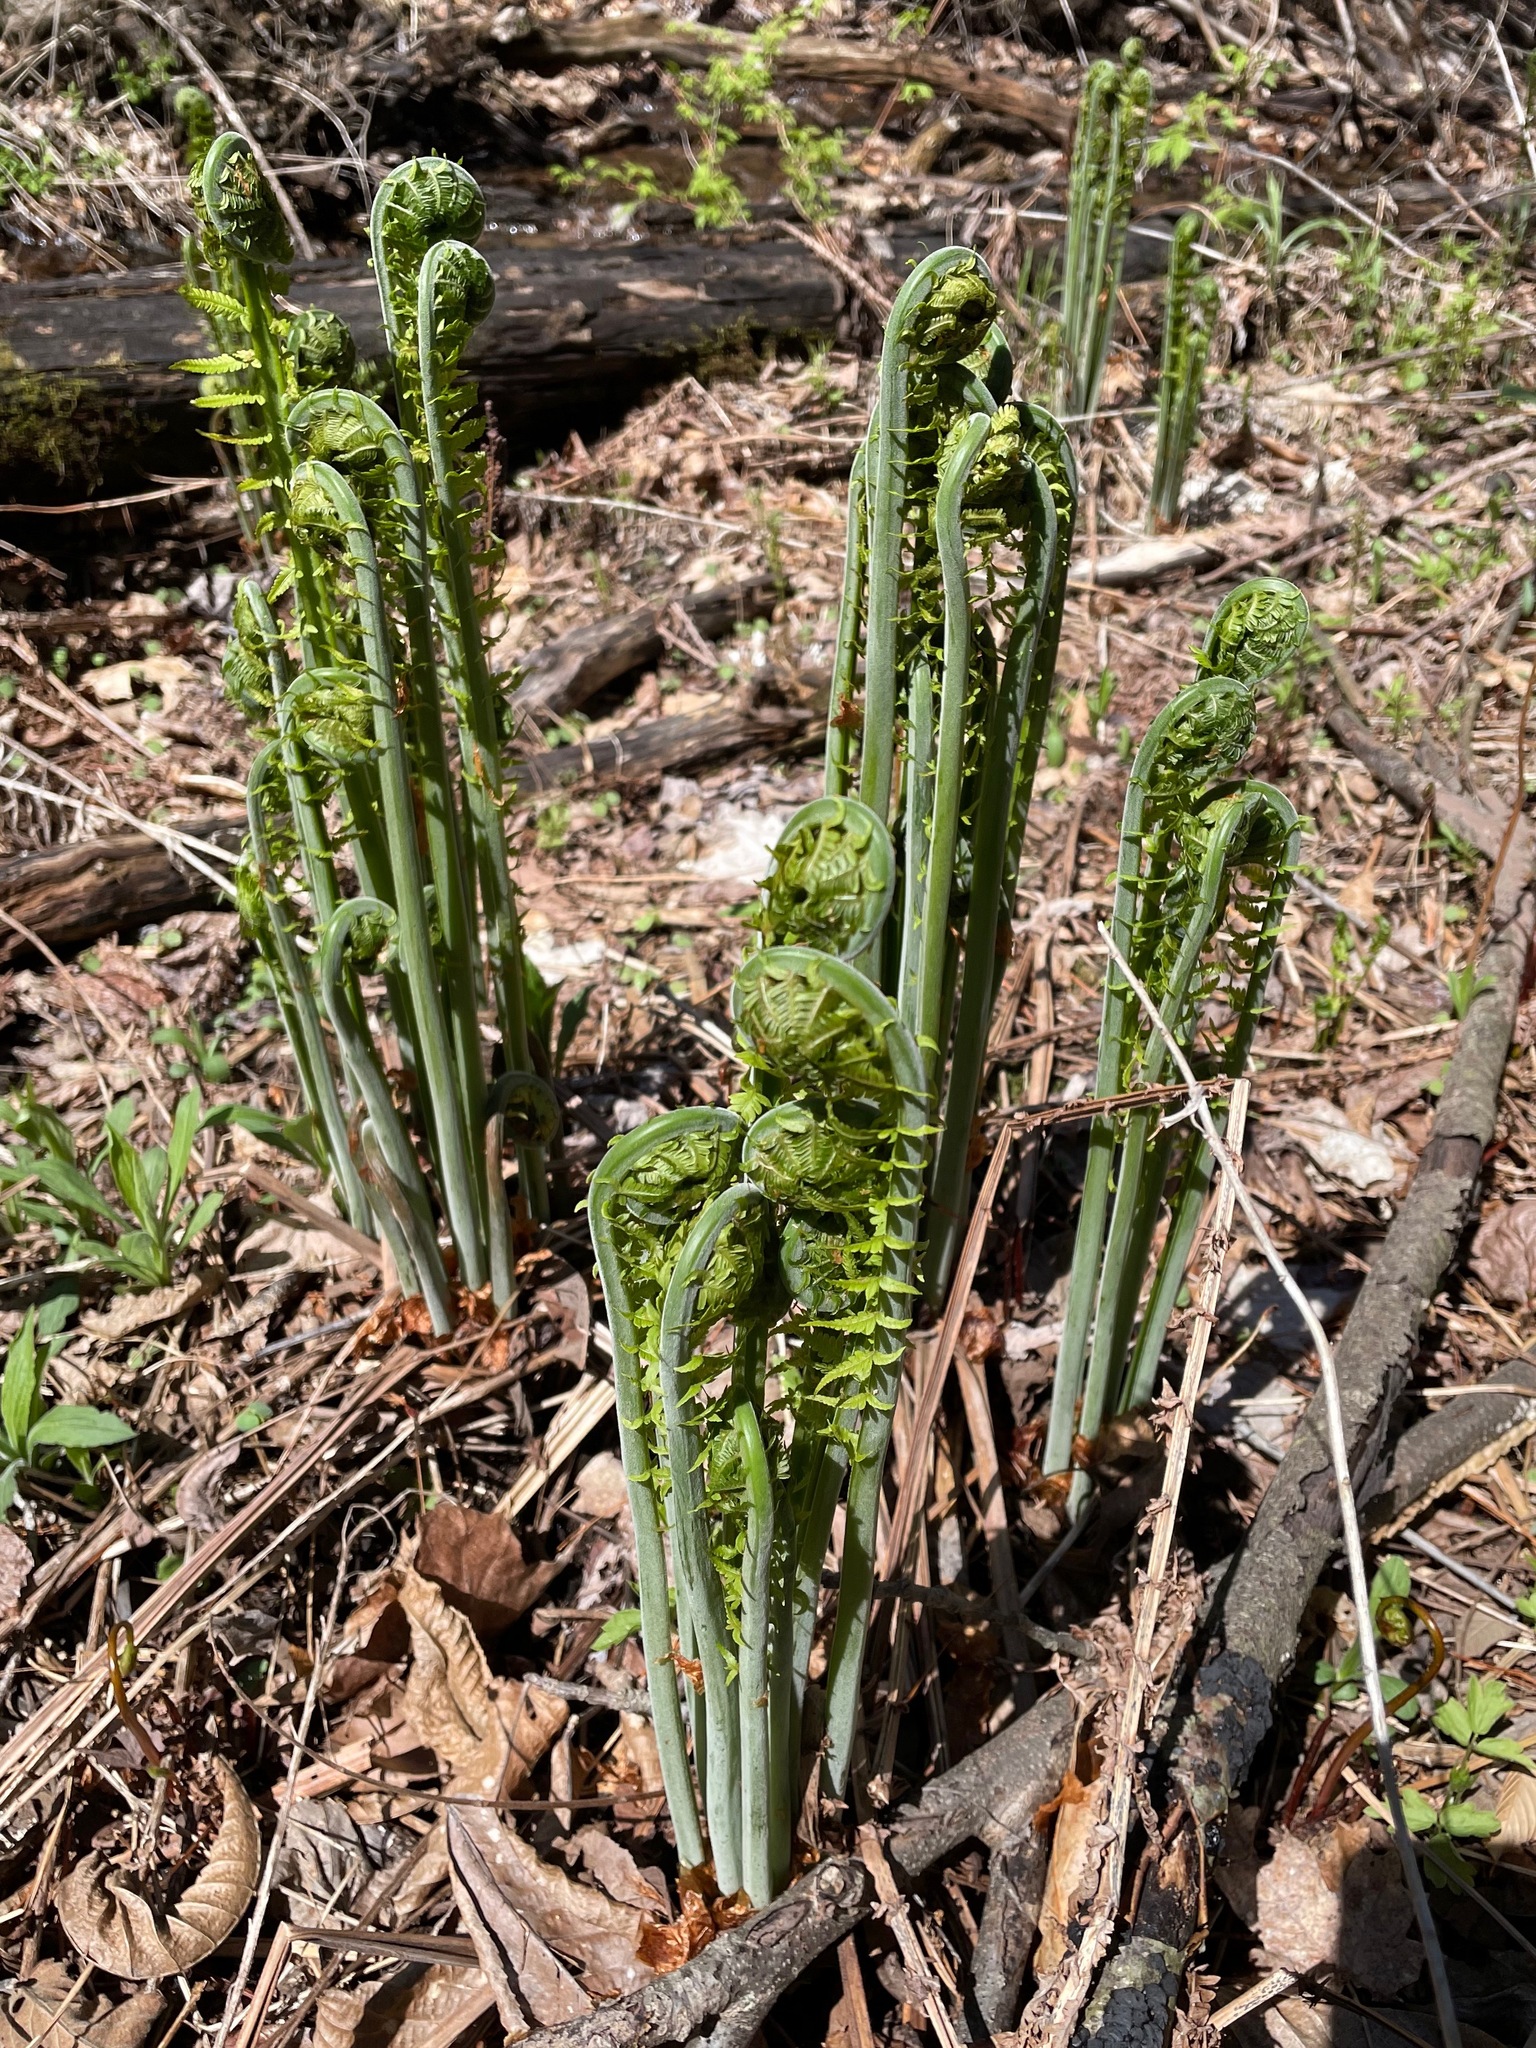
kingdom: Plantae
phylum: Tracheophyta
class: Polypodiopsida
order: Polypodiales
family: Onocleaceae
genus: Matteuccia
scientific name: Matteuccia struthiopteris
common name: Ostrich fern
